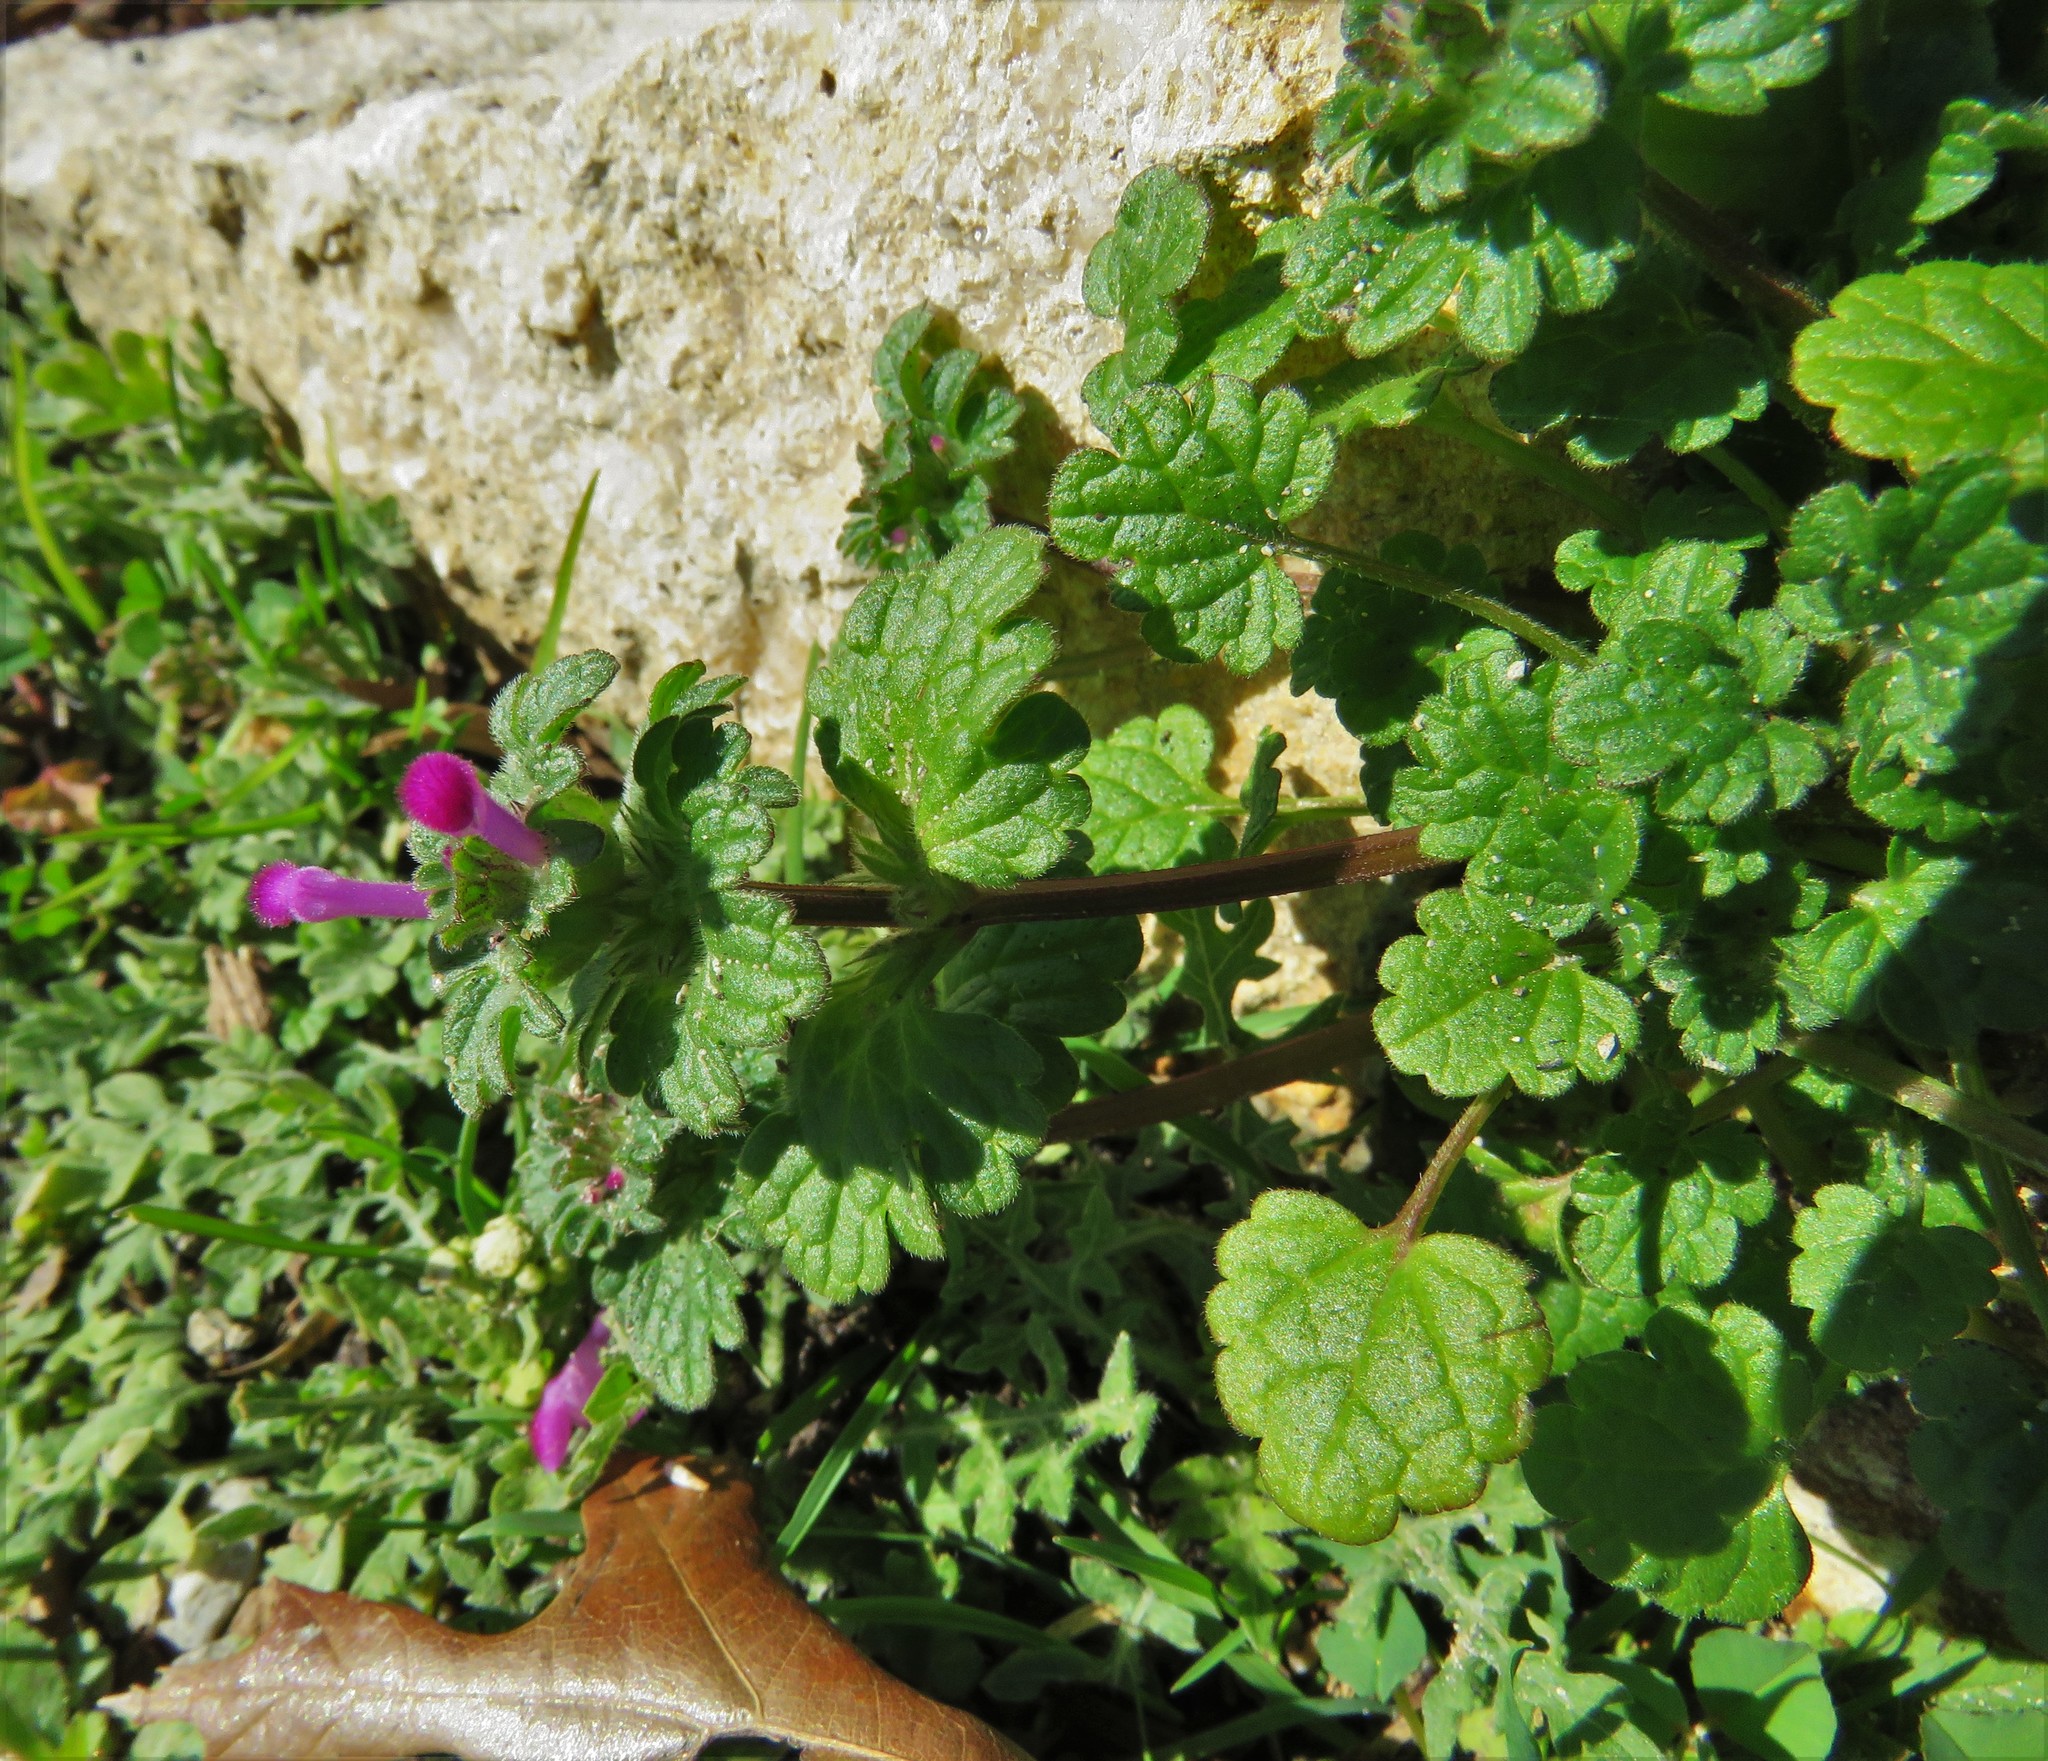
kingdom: Plantae
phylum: Tracheophyta
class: Magnoliopsida
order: Lamiales
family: Lamiaceae
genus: Lamium
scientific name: Lamium amplexicaule
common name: Henbit dead-nettle
